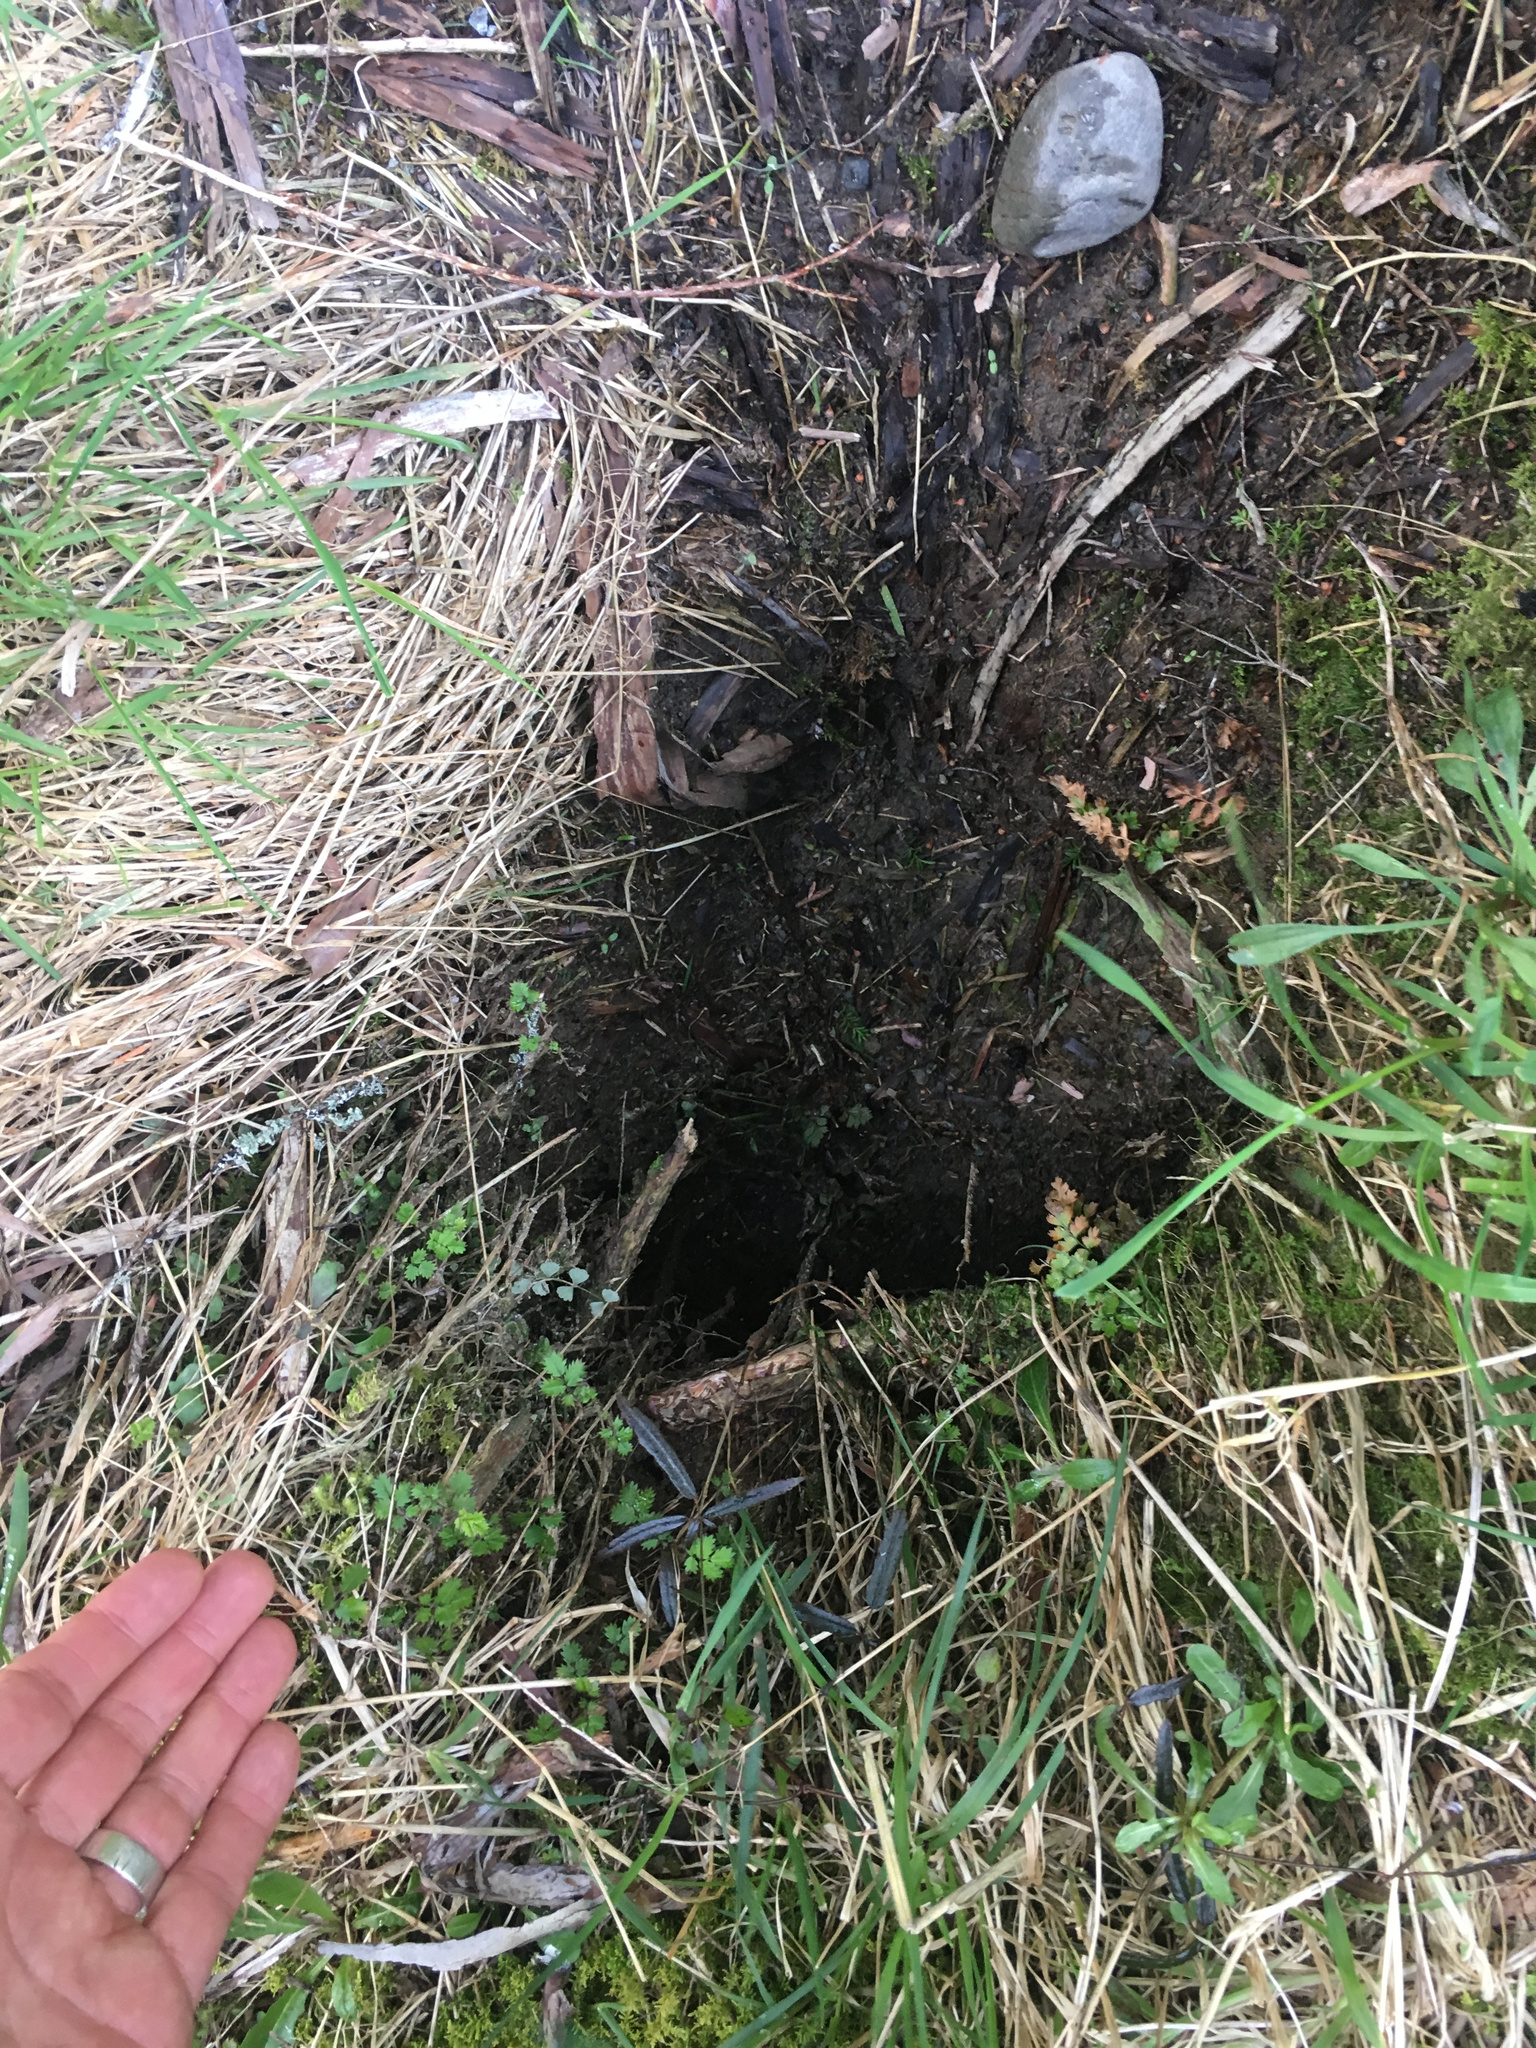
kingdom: Animalia
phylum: Chordata
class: Mammalia
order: Lagomorpha
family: Leporidae
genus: Oryctolagus
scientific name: Oryctolagus cuniculus
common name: European rabbit
